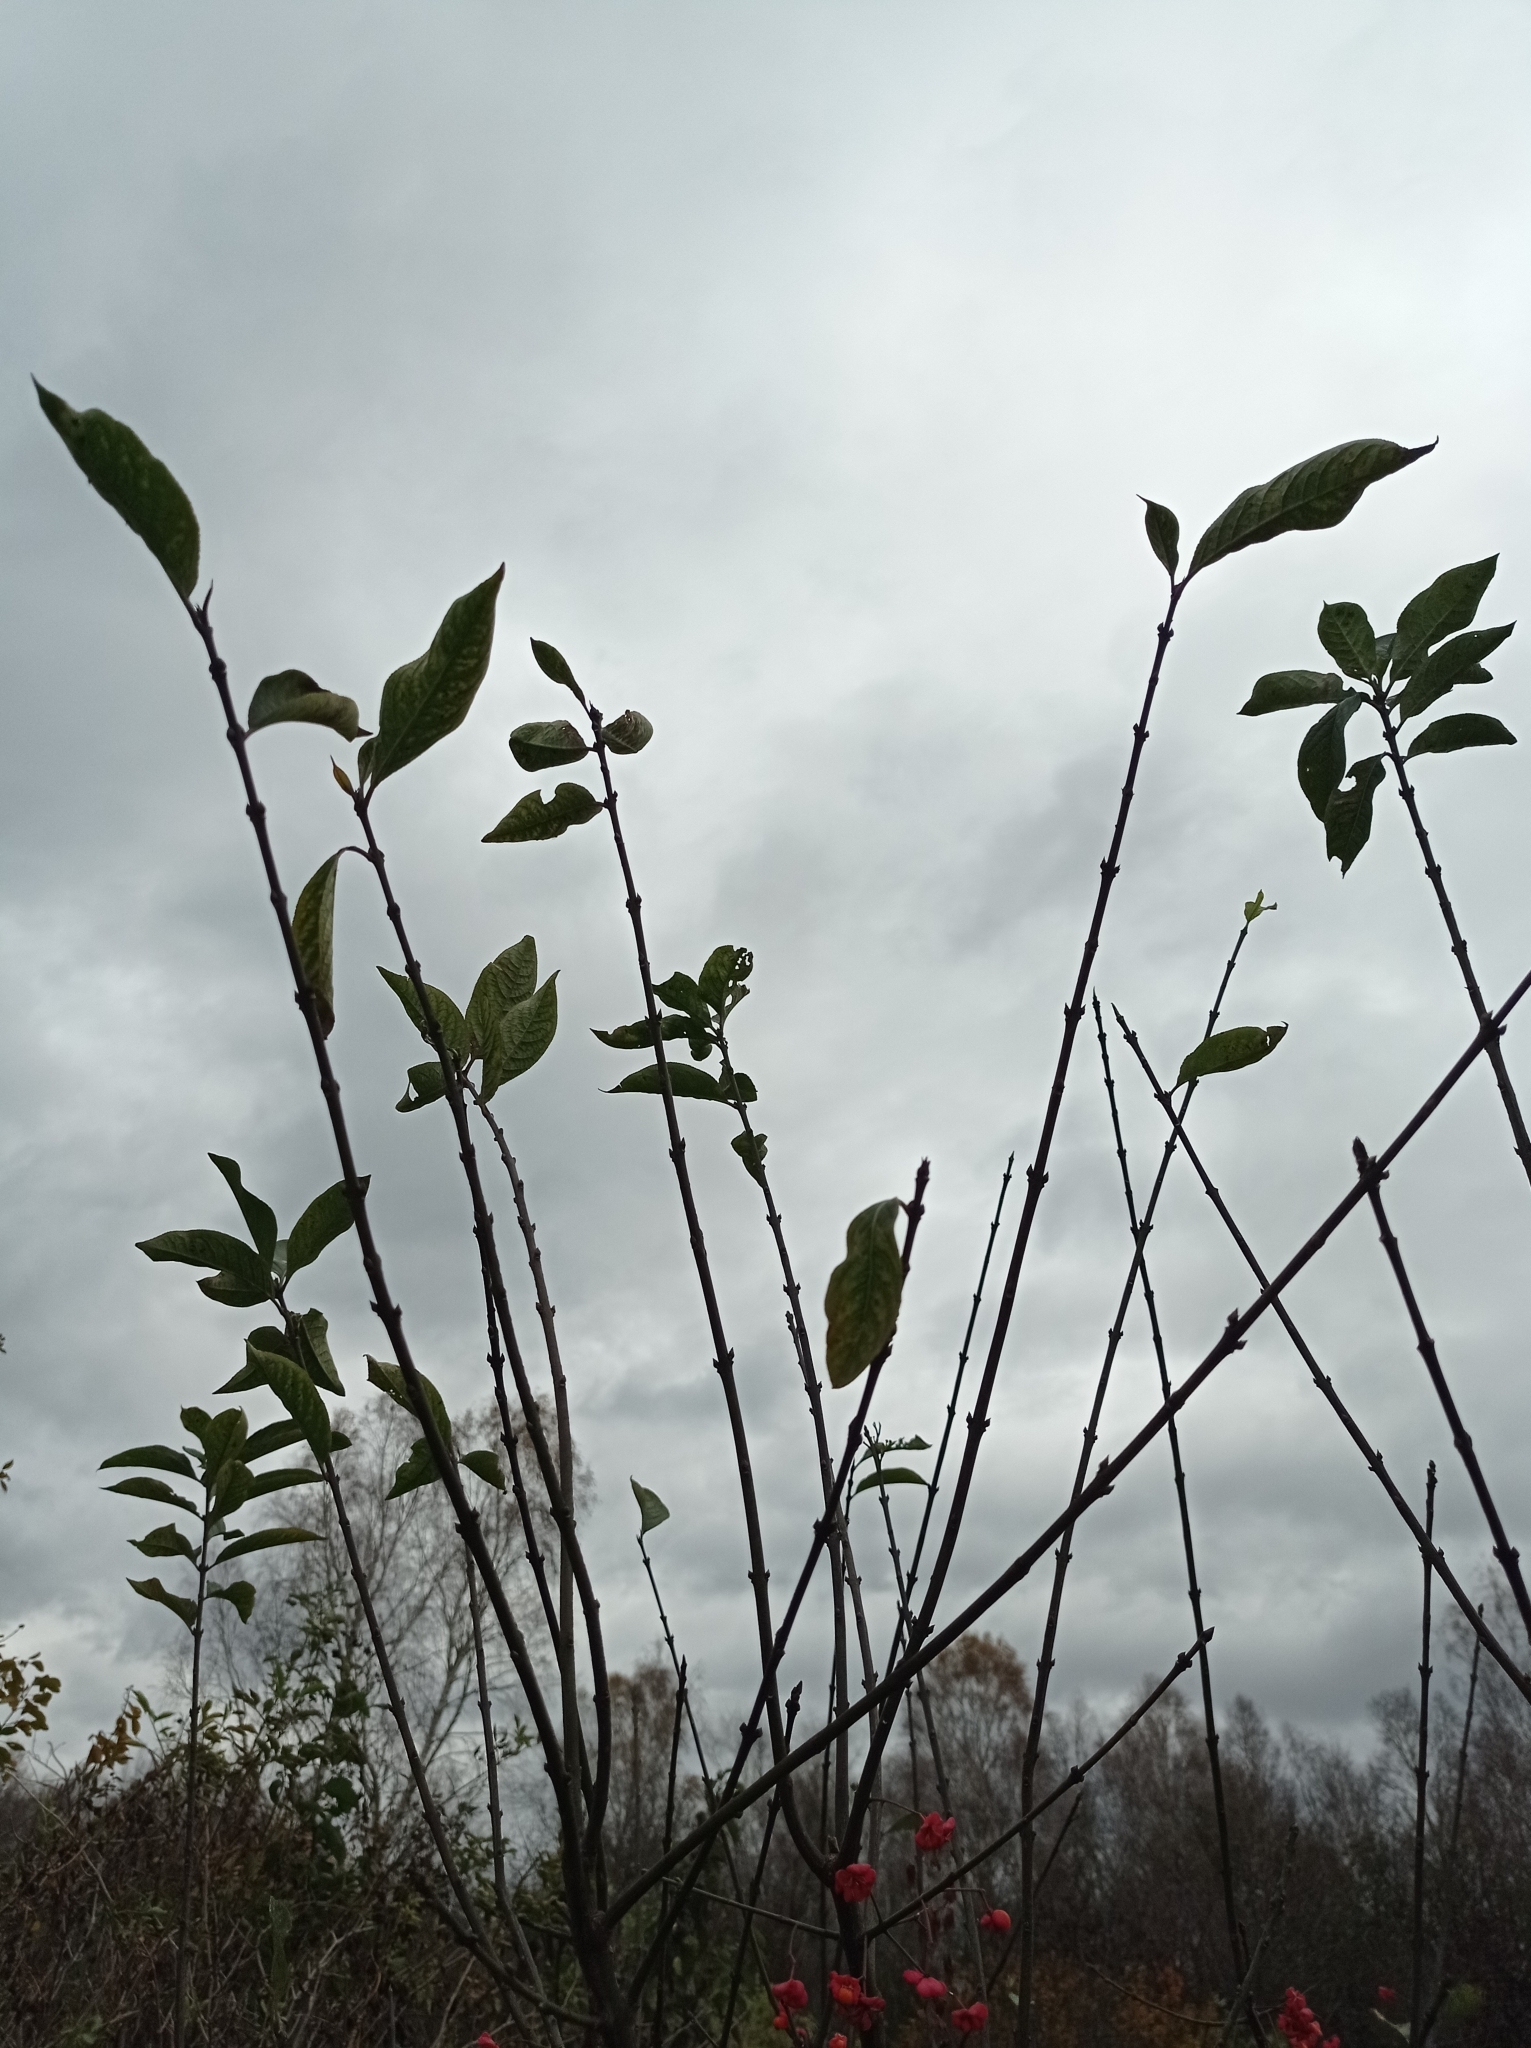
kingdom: Plantae
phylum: Tracheophyta
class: Magnoliopsida
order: Celastrales
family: Celastraceae
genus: Euonymus
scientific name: Euonymus europaeus
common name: Spindle
